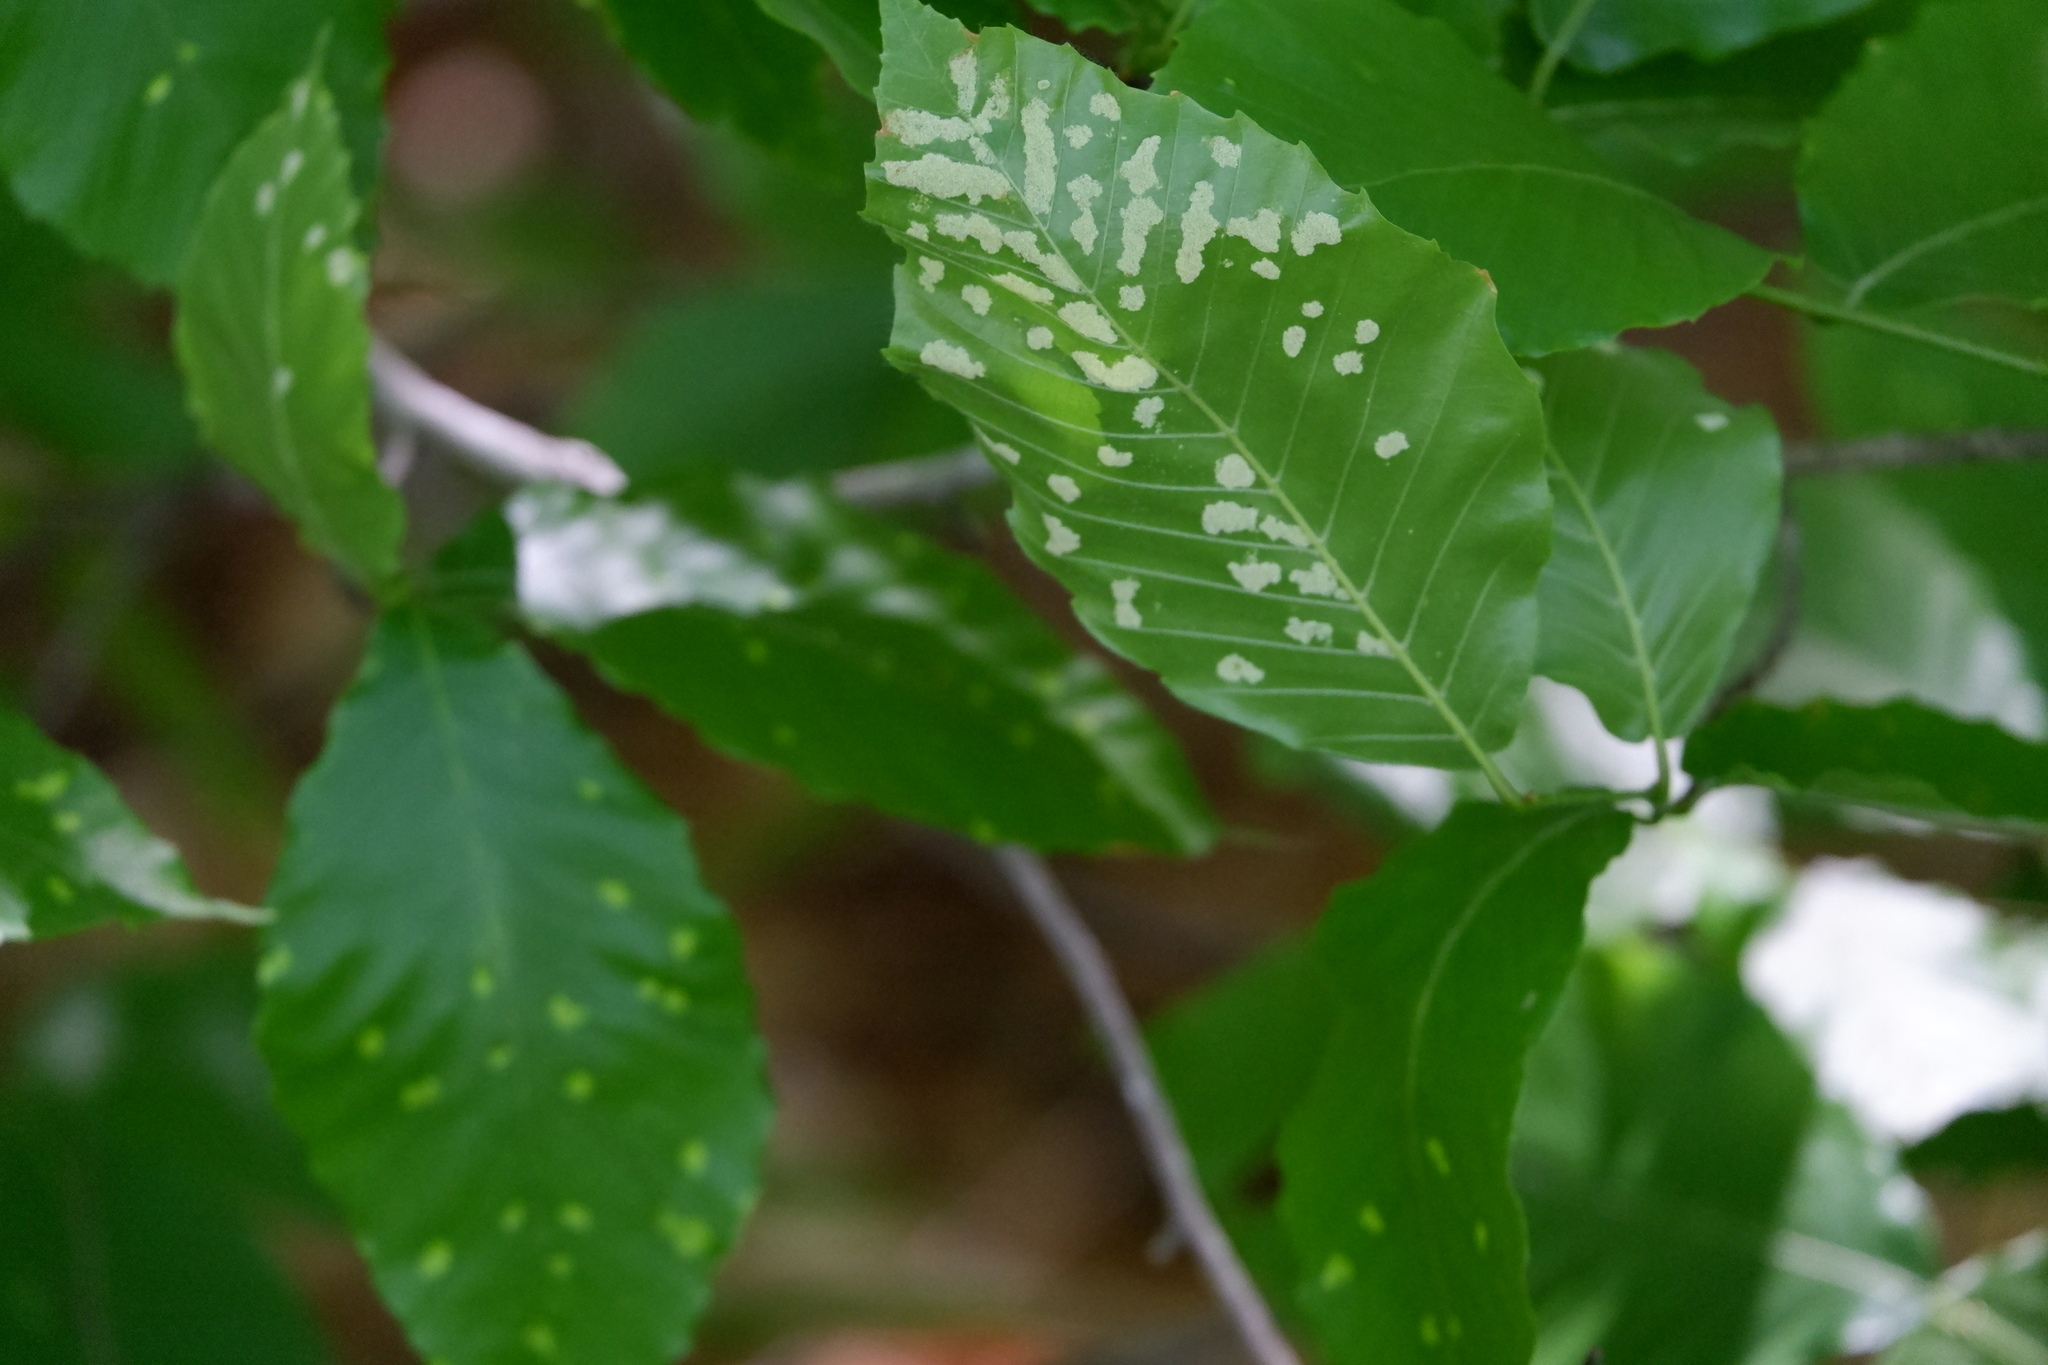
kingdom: Animalia
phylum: Arthropoda
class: Arachnida
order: Trombidiformes
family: Eriophyidae
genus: Acalitus
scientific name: Acalitus
